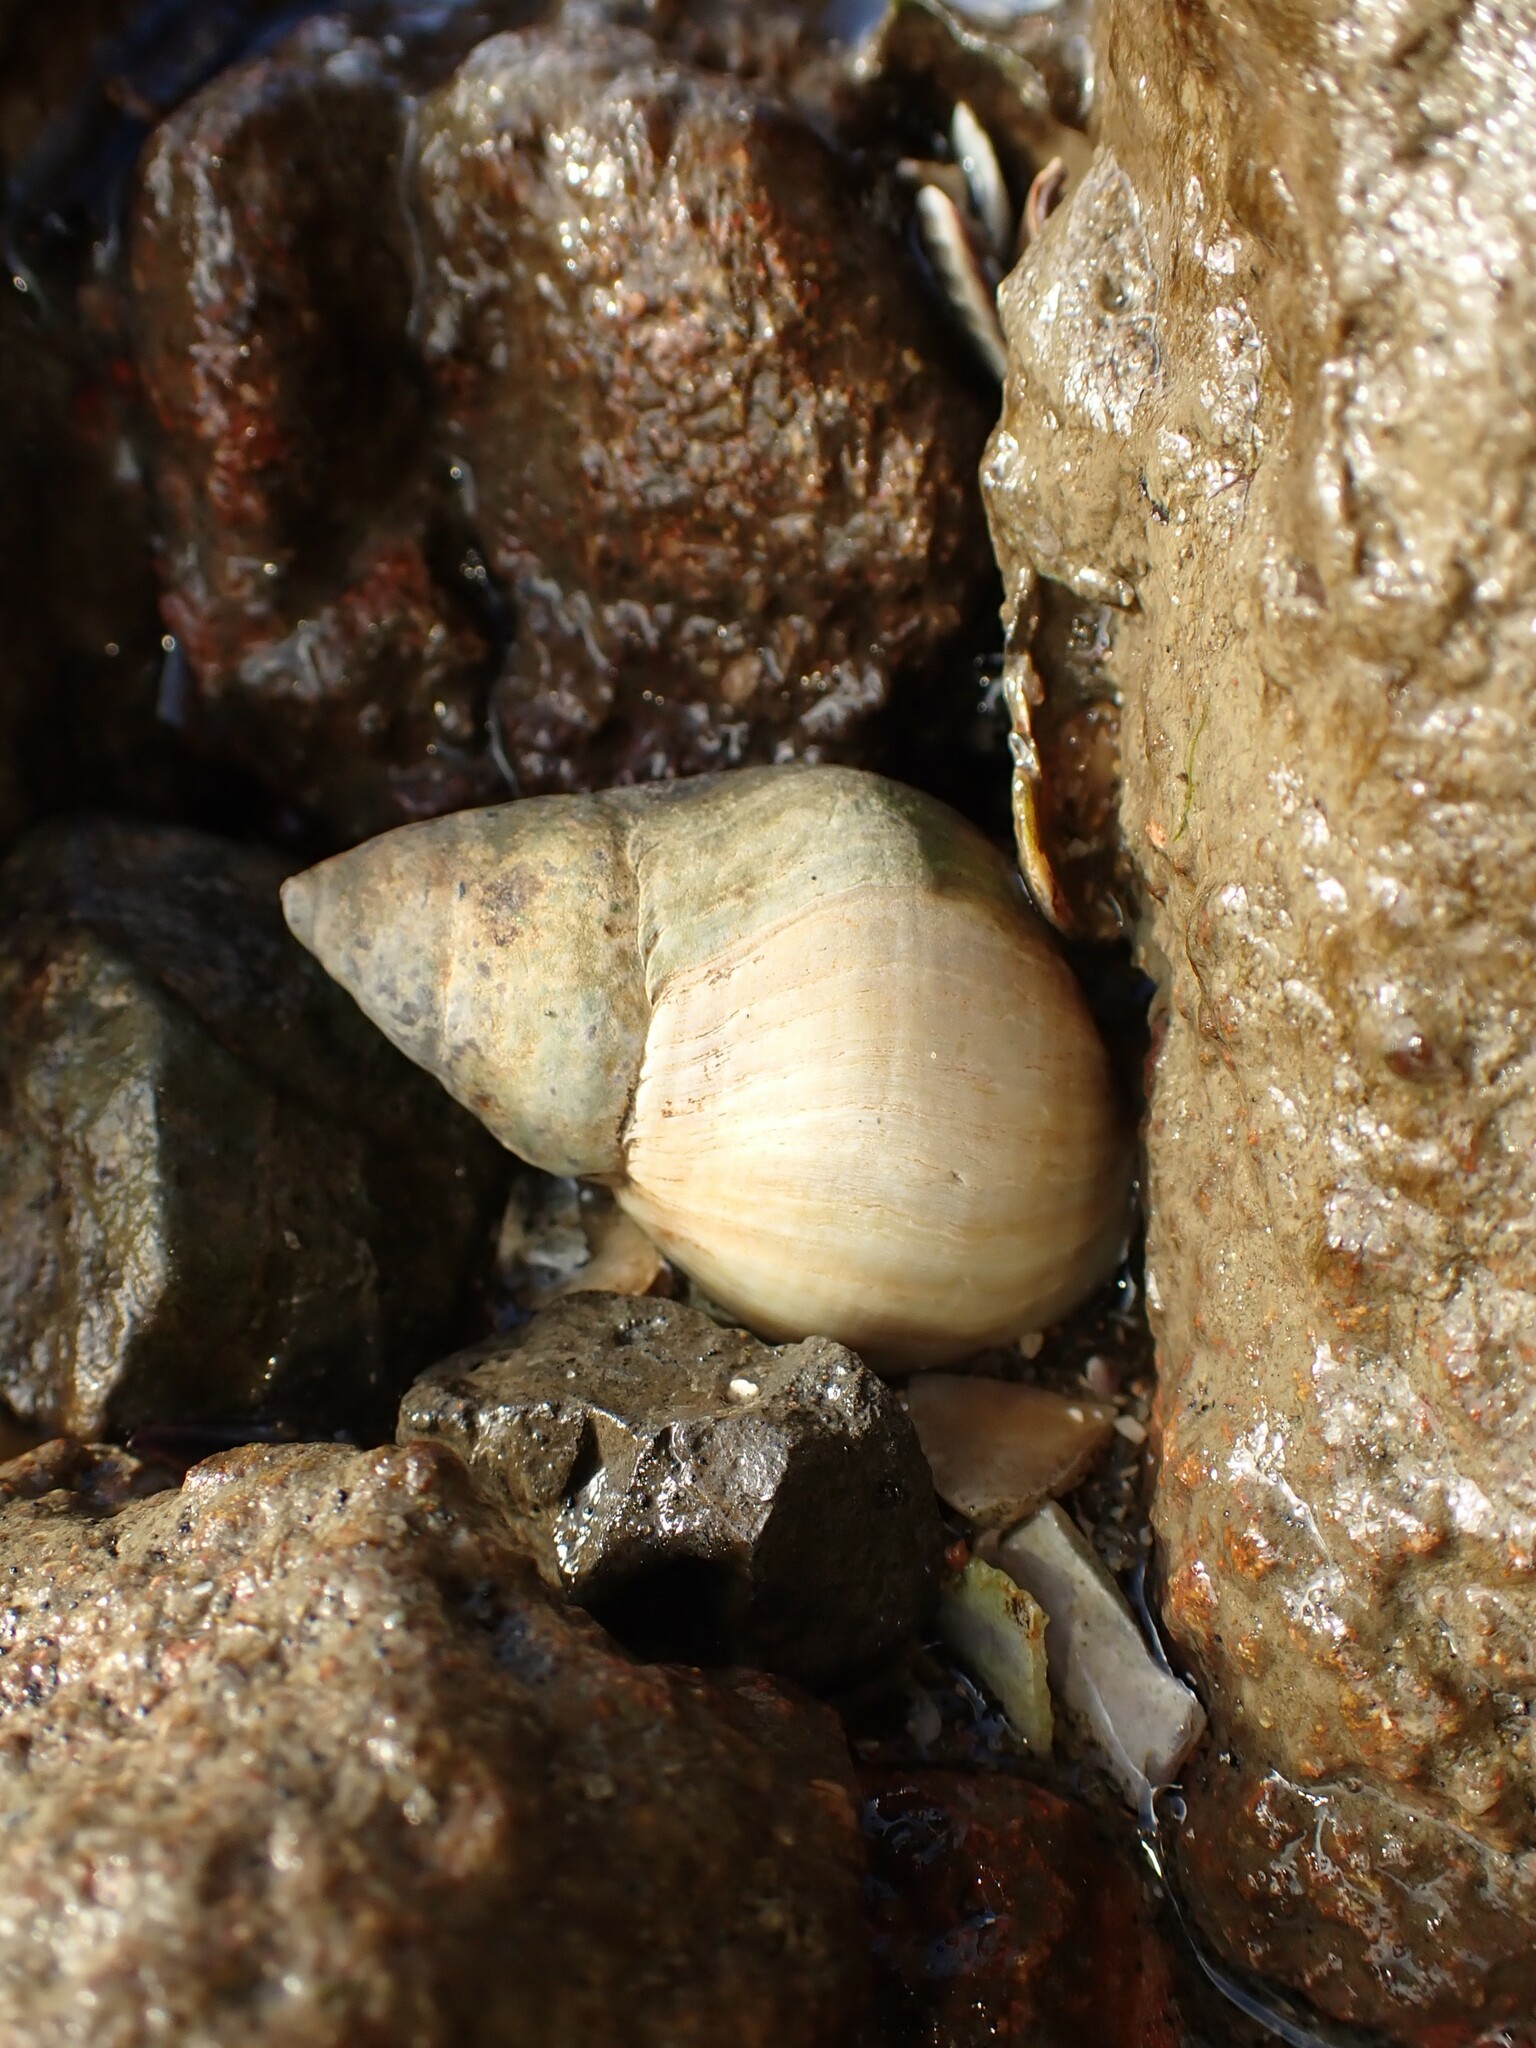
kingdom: Animalia
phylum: Mollusca
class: Gastropoda
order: Neogastropoda
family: Cominellidae
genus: Cominella
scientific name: Cominella adspersa
